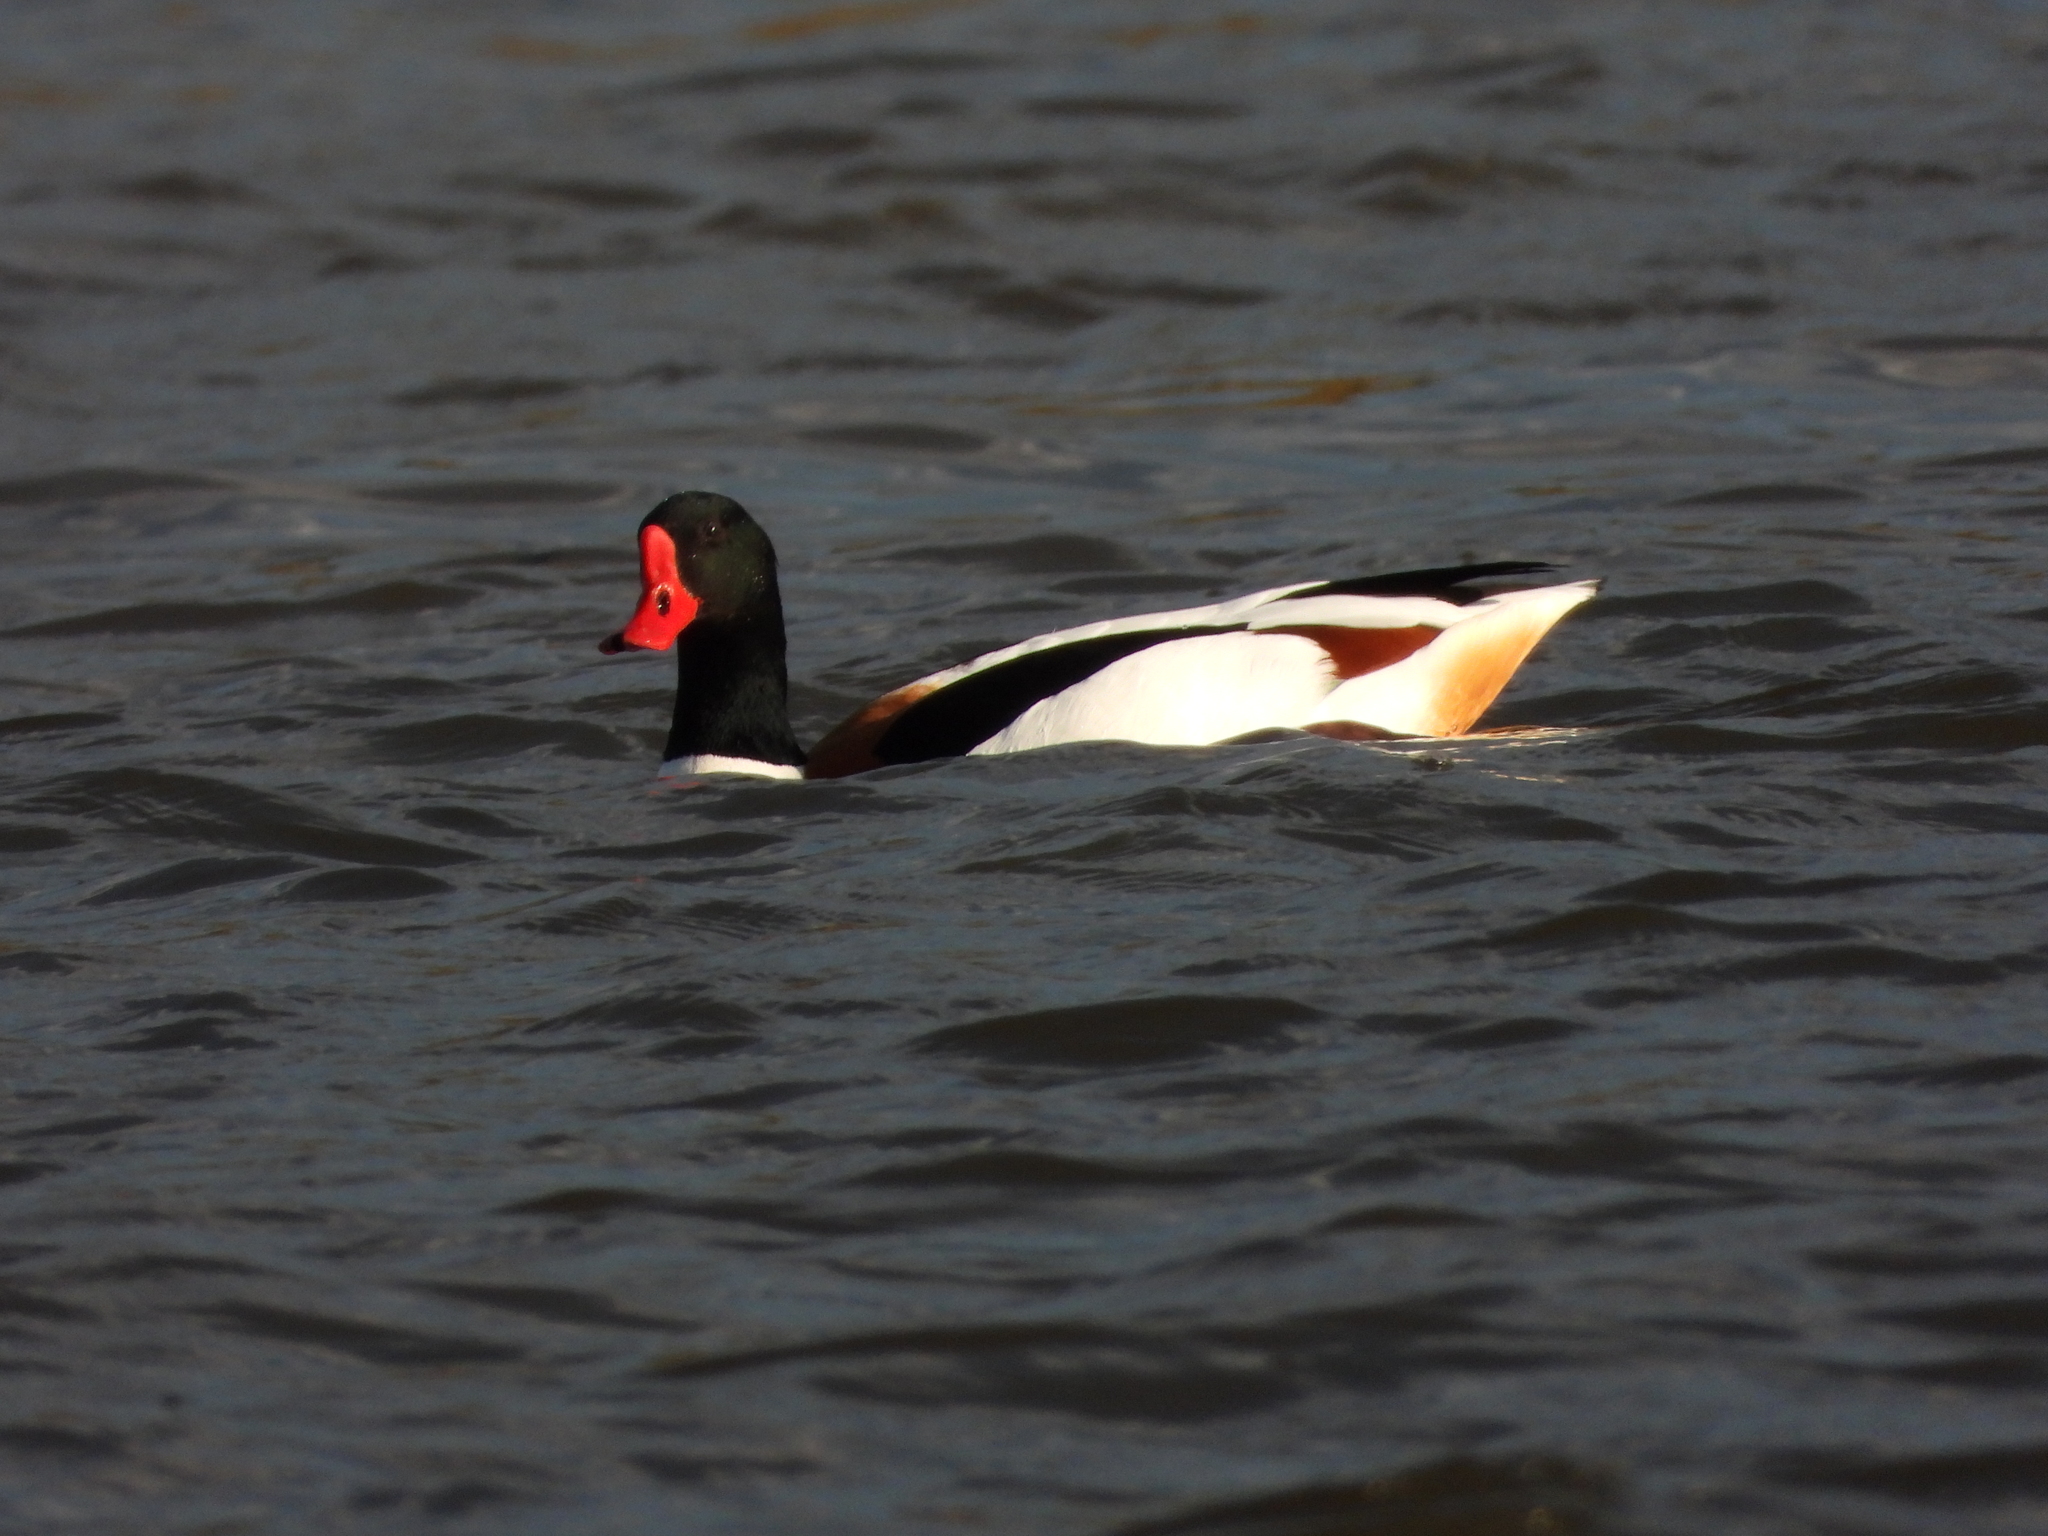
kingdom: Animalia
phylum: Chordata
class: Aves
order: Anseriformes
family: Anatidae
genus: Tadorna
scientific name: Tadorna tadorna
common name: Common shelduck
